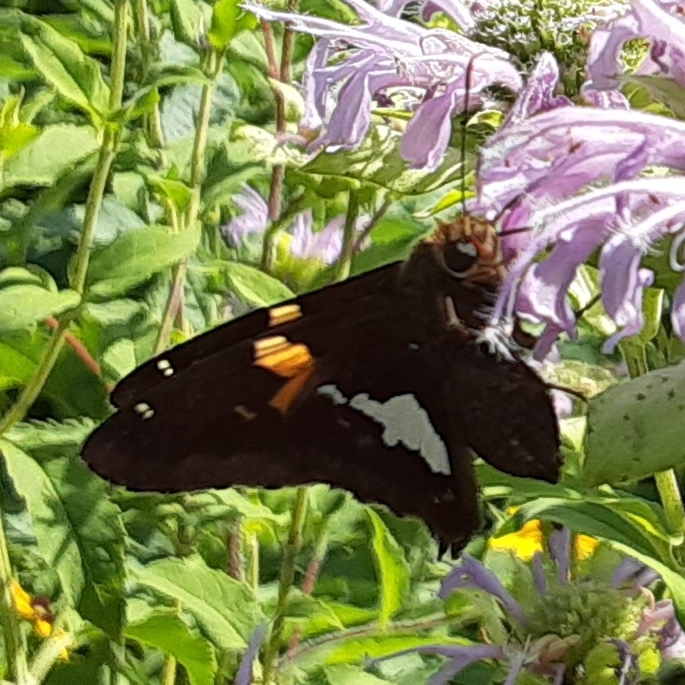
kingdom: Animalia
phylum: Arthropoda
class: Insecta
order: Lepidoptera
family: Hesperiidae
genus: Epargyreus
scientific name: Epargyreus clarus
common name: Silver-spotted skipper
